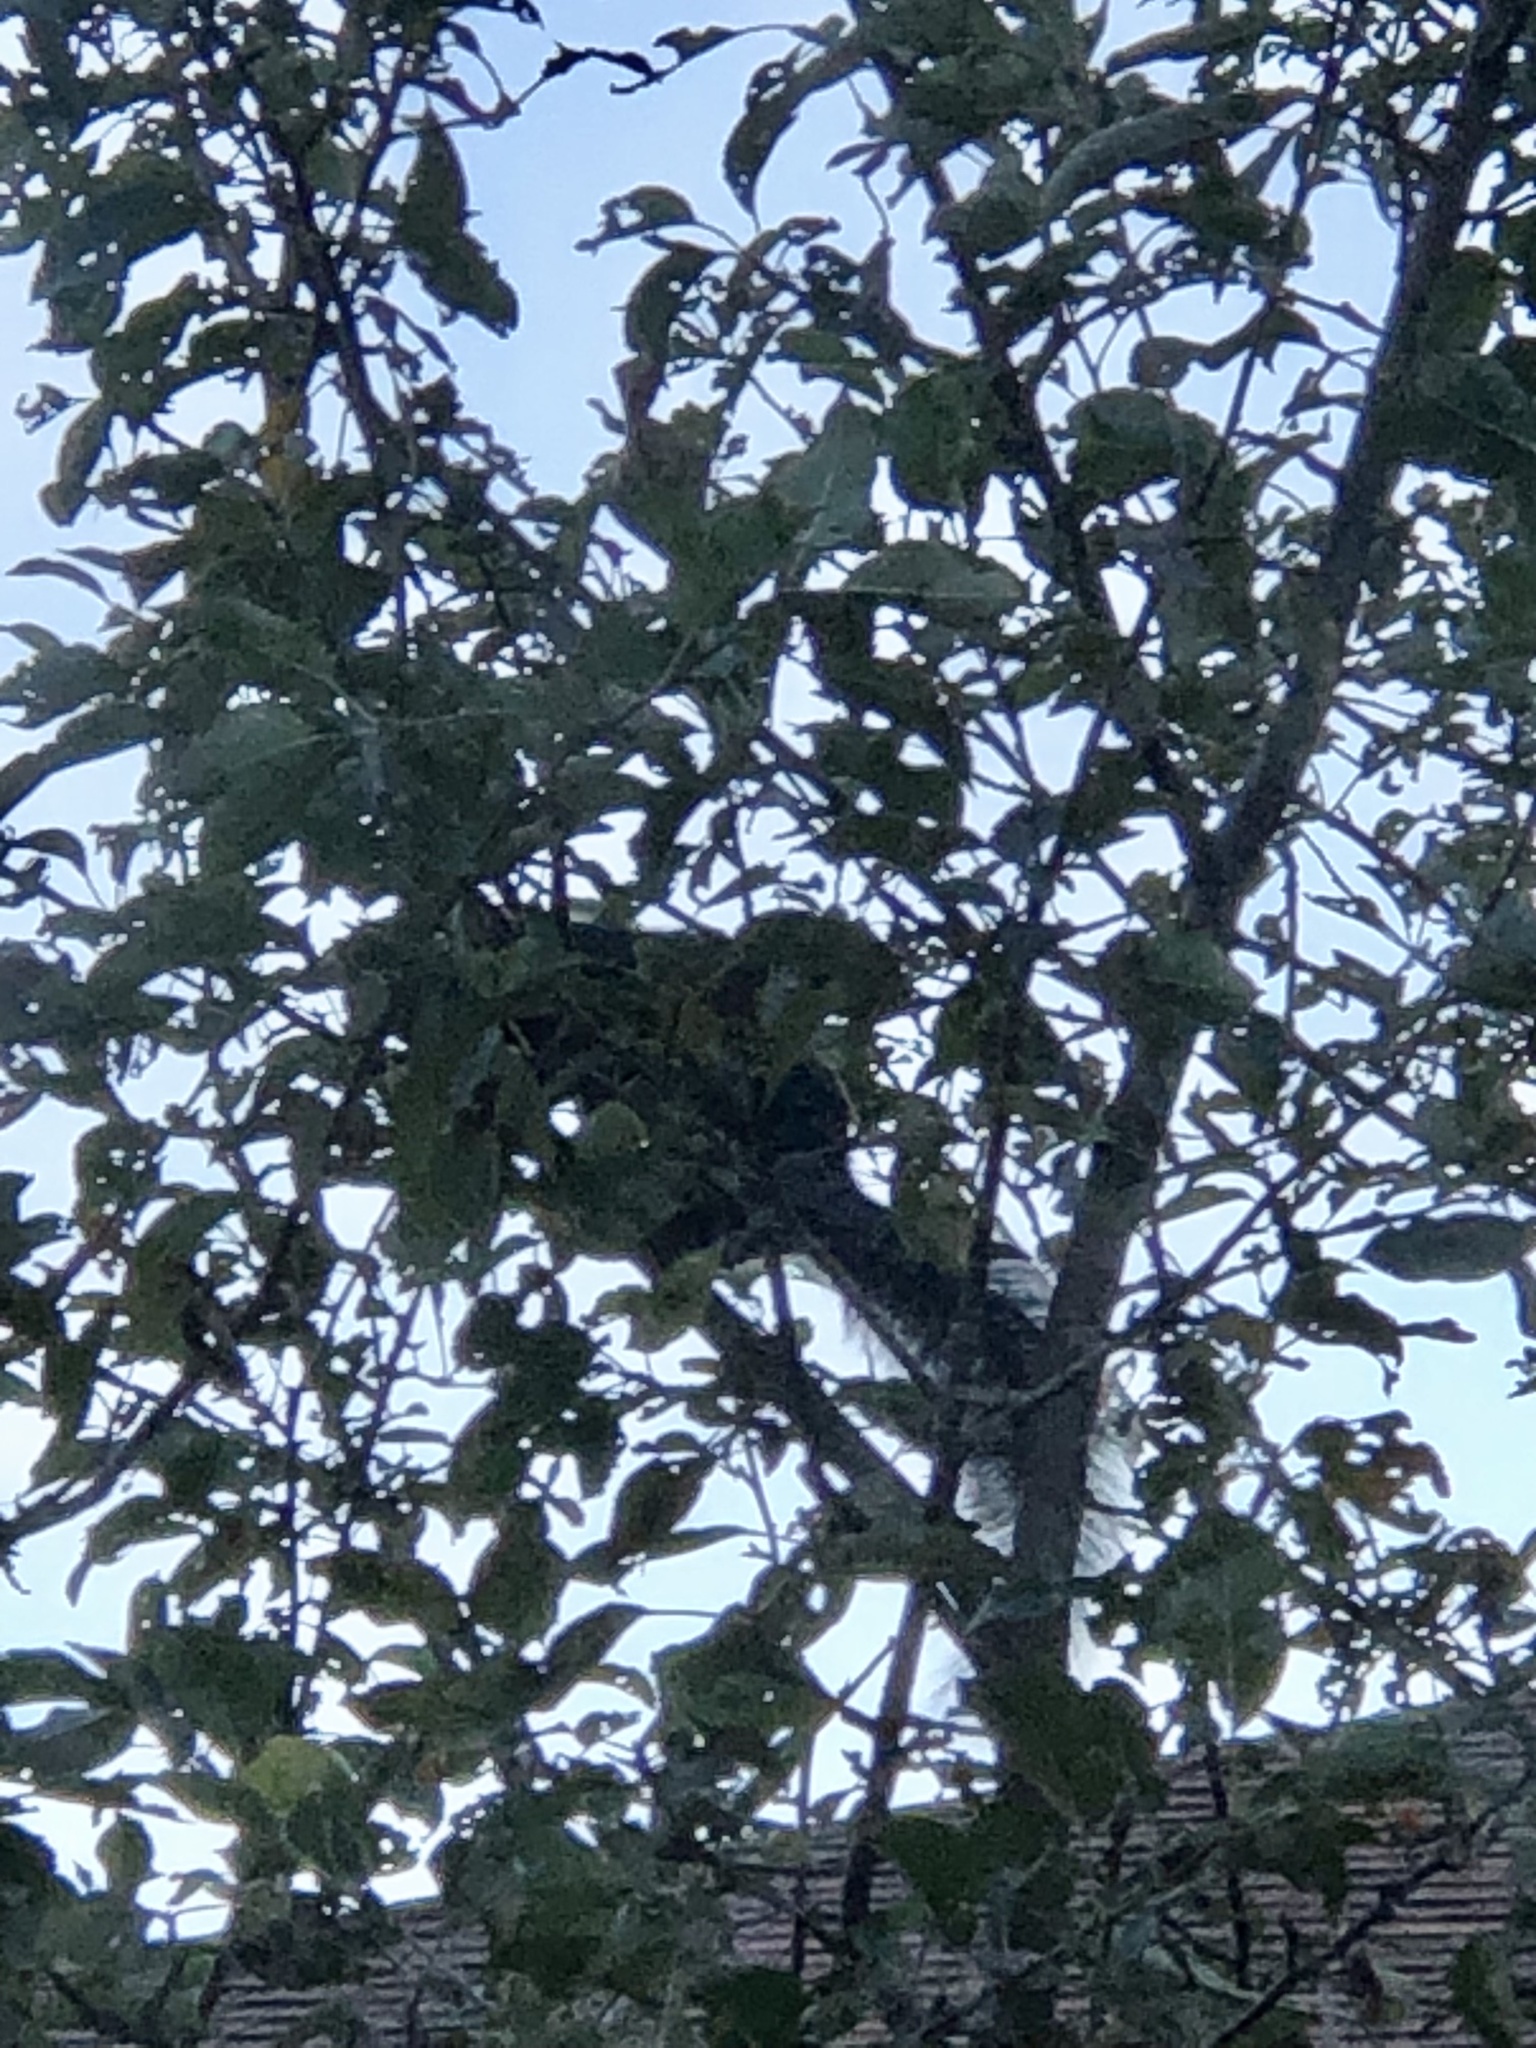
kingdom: Animalia
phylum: Chordata
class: Mammalia
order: Rodentia
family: Sciuridae
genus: Sciurus
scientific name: Sciurus carolinensis
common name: Eastern gray squirrel
